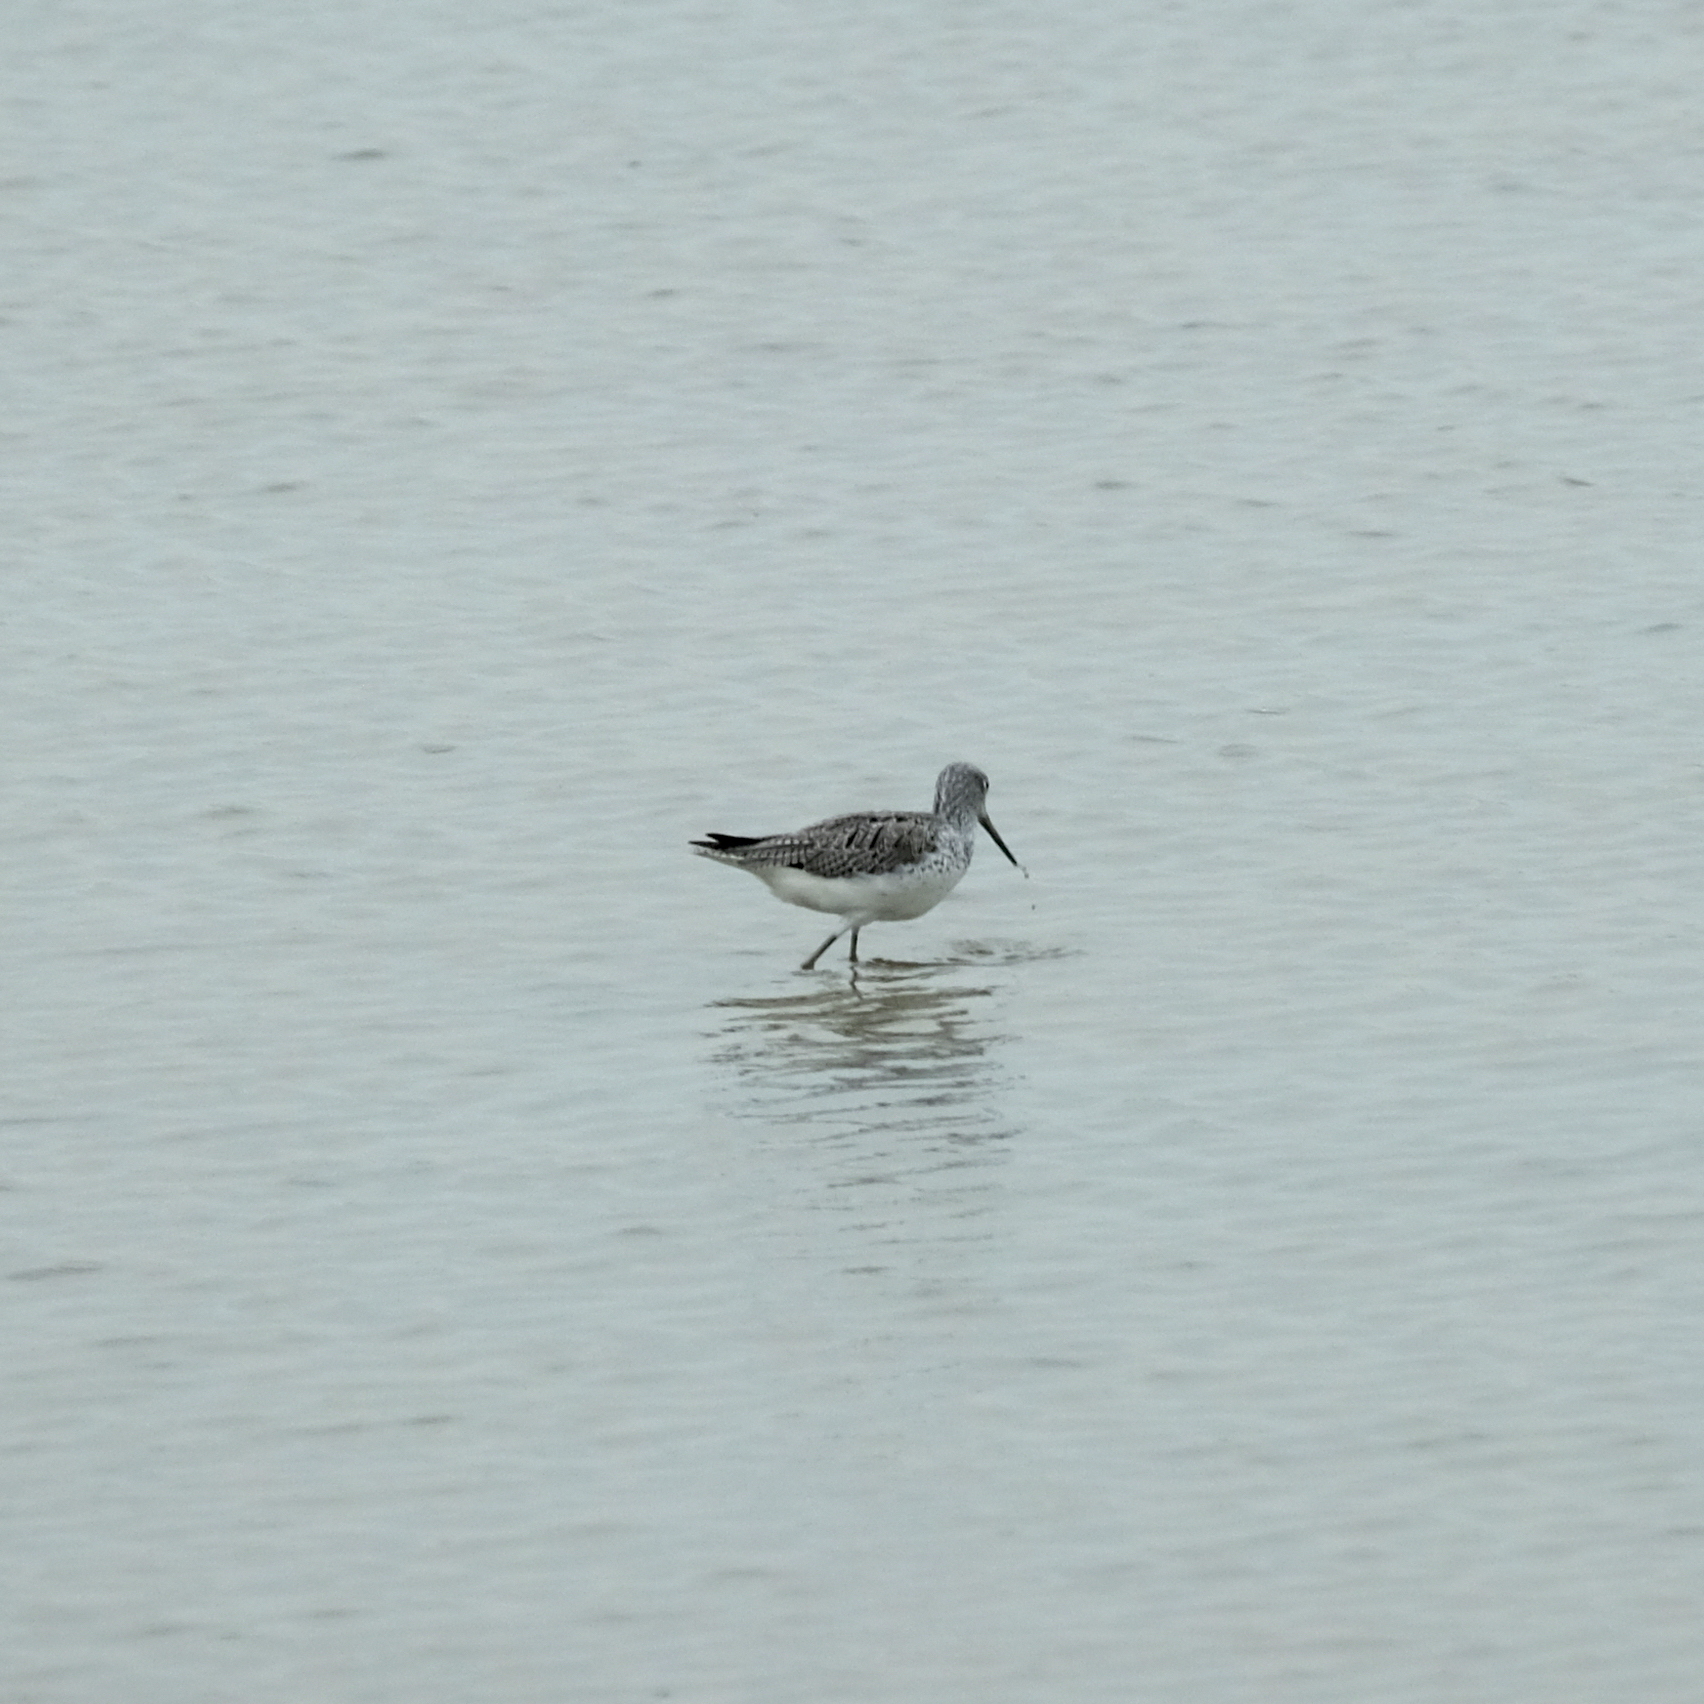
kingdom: Animalia
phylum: Chordata
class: Aves
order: Charadriiformes
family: Scolopacidae
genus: Tringa
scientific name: Tringa nebularia
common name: Common greenshank
